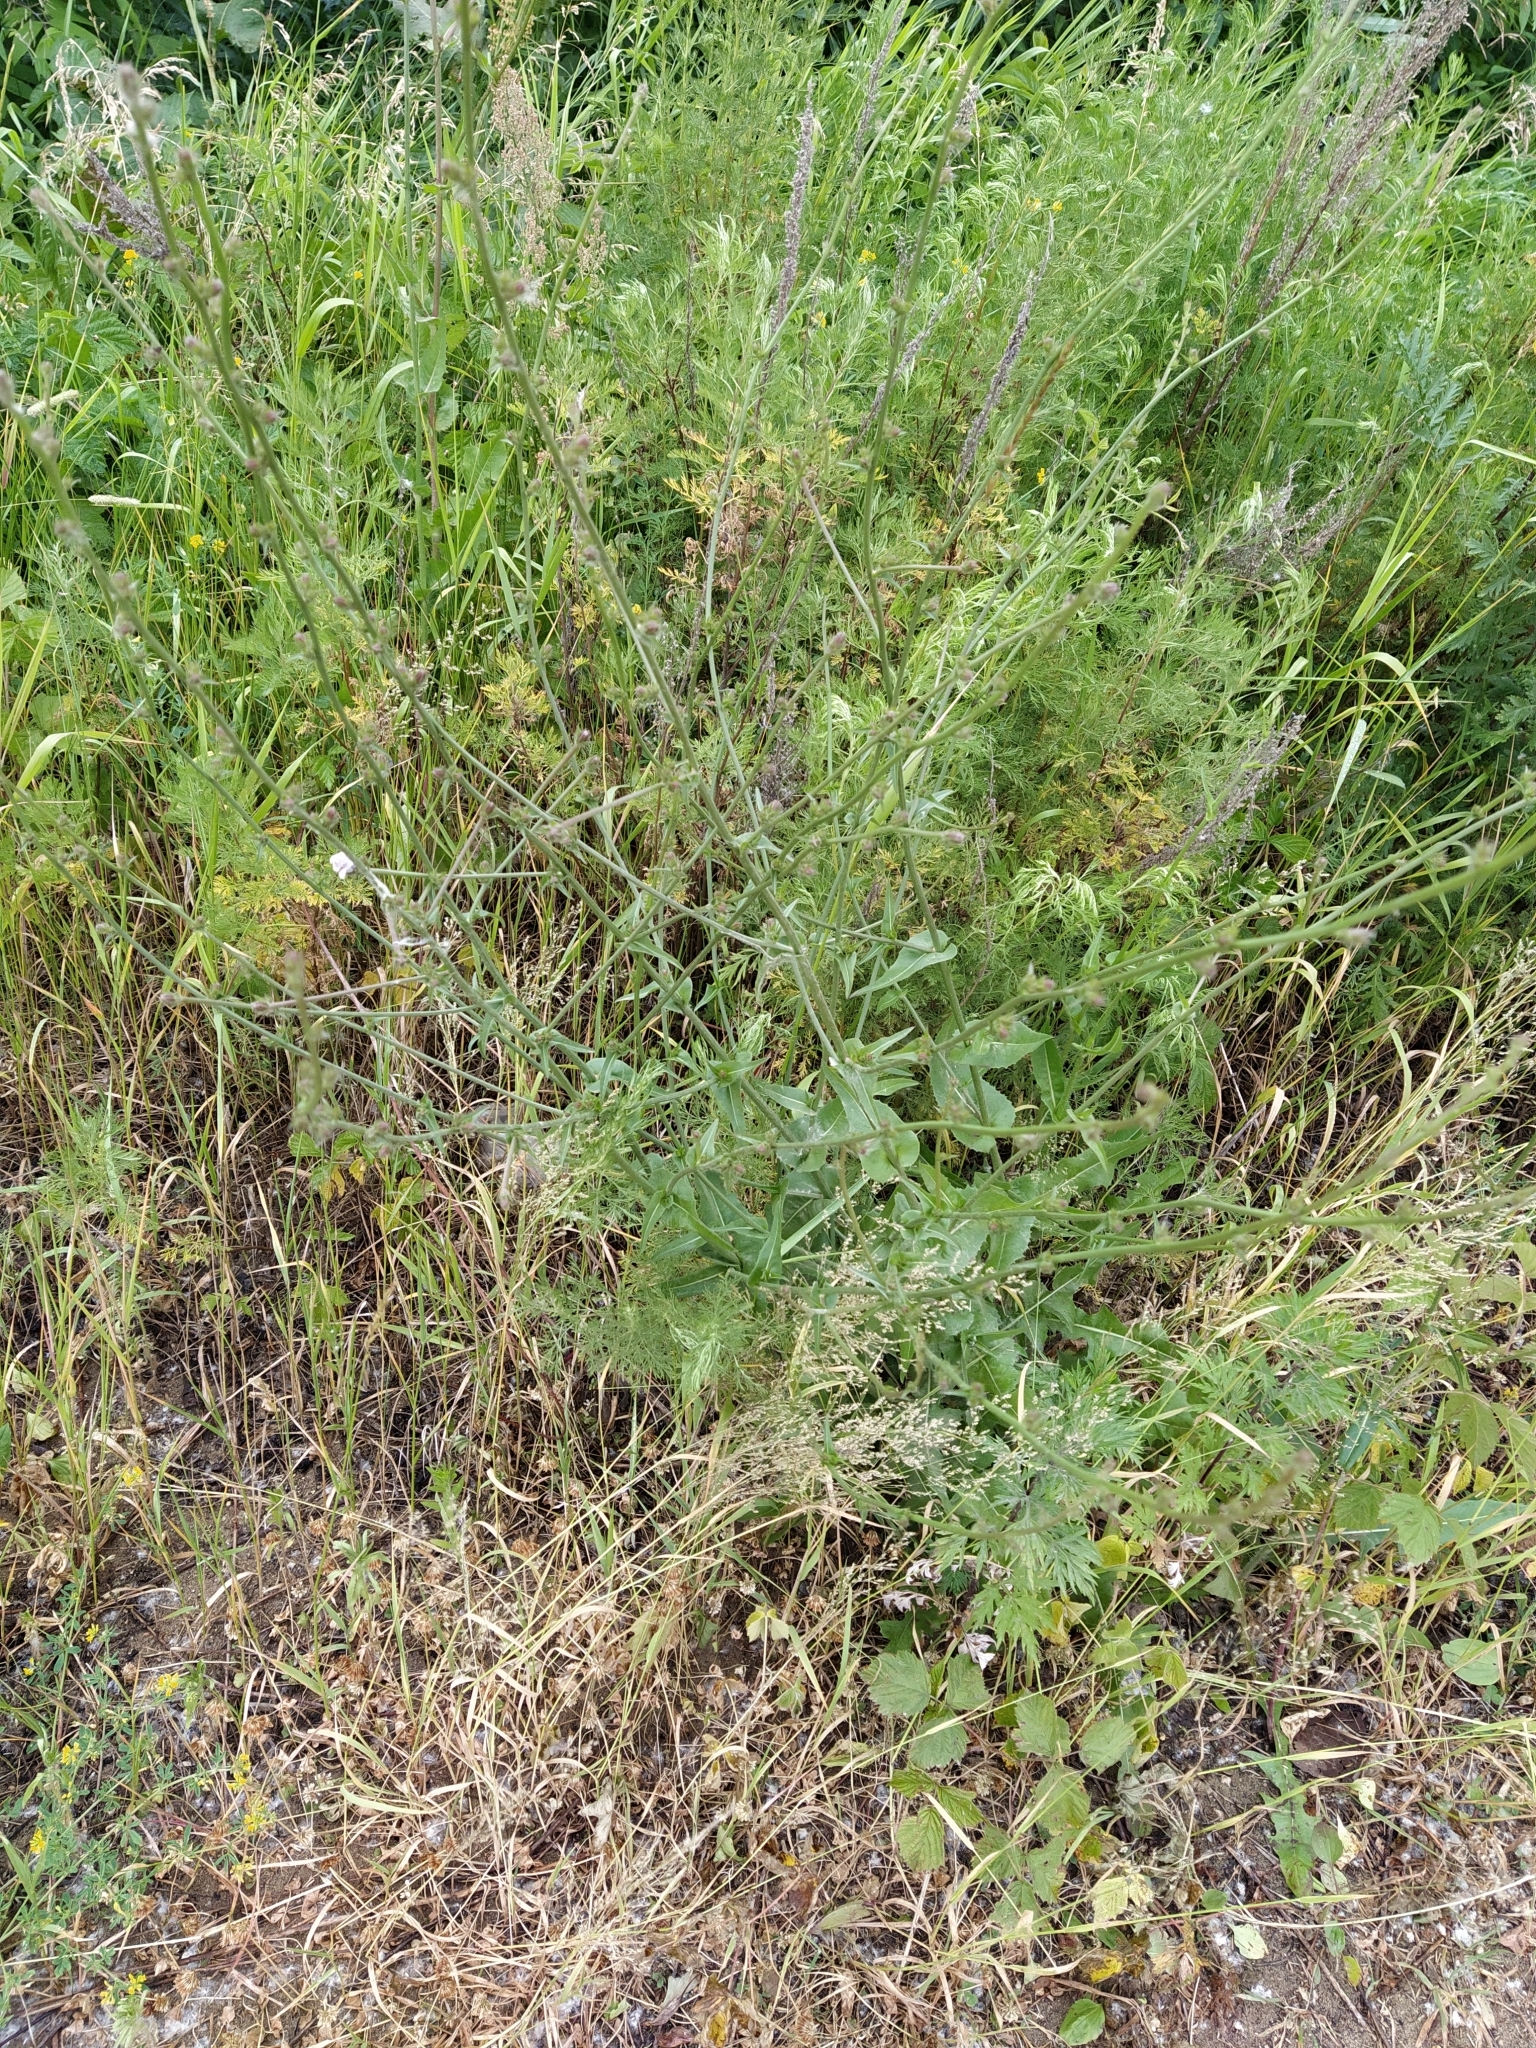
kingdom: Plantae
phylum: Tracheophyta
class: Magnoliopsida
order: Asterales
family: Asteraceae
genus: Cichorium
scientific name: Cichorium intybus
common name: Chicory
